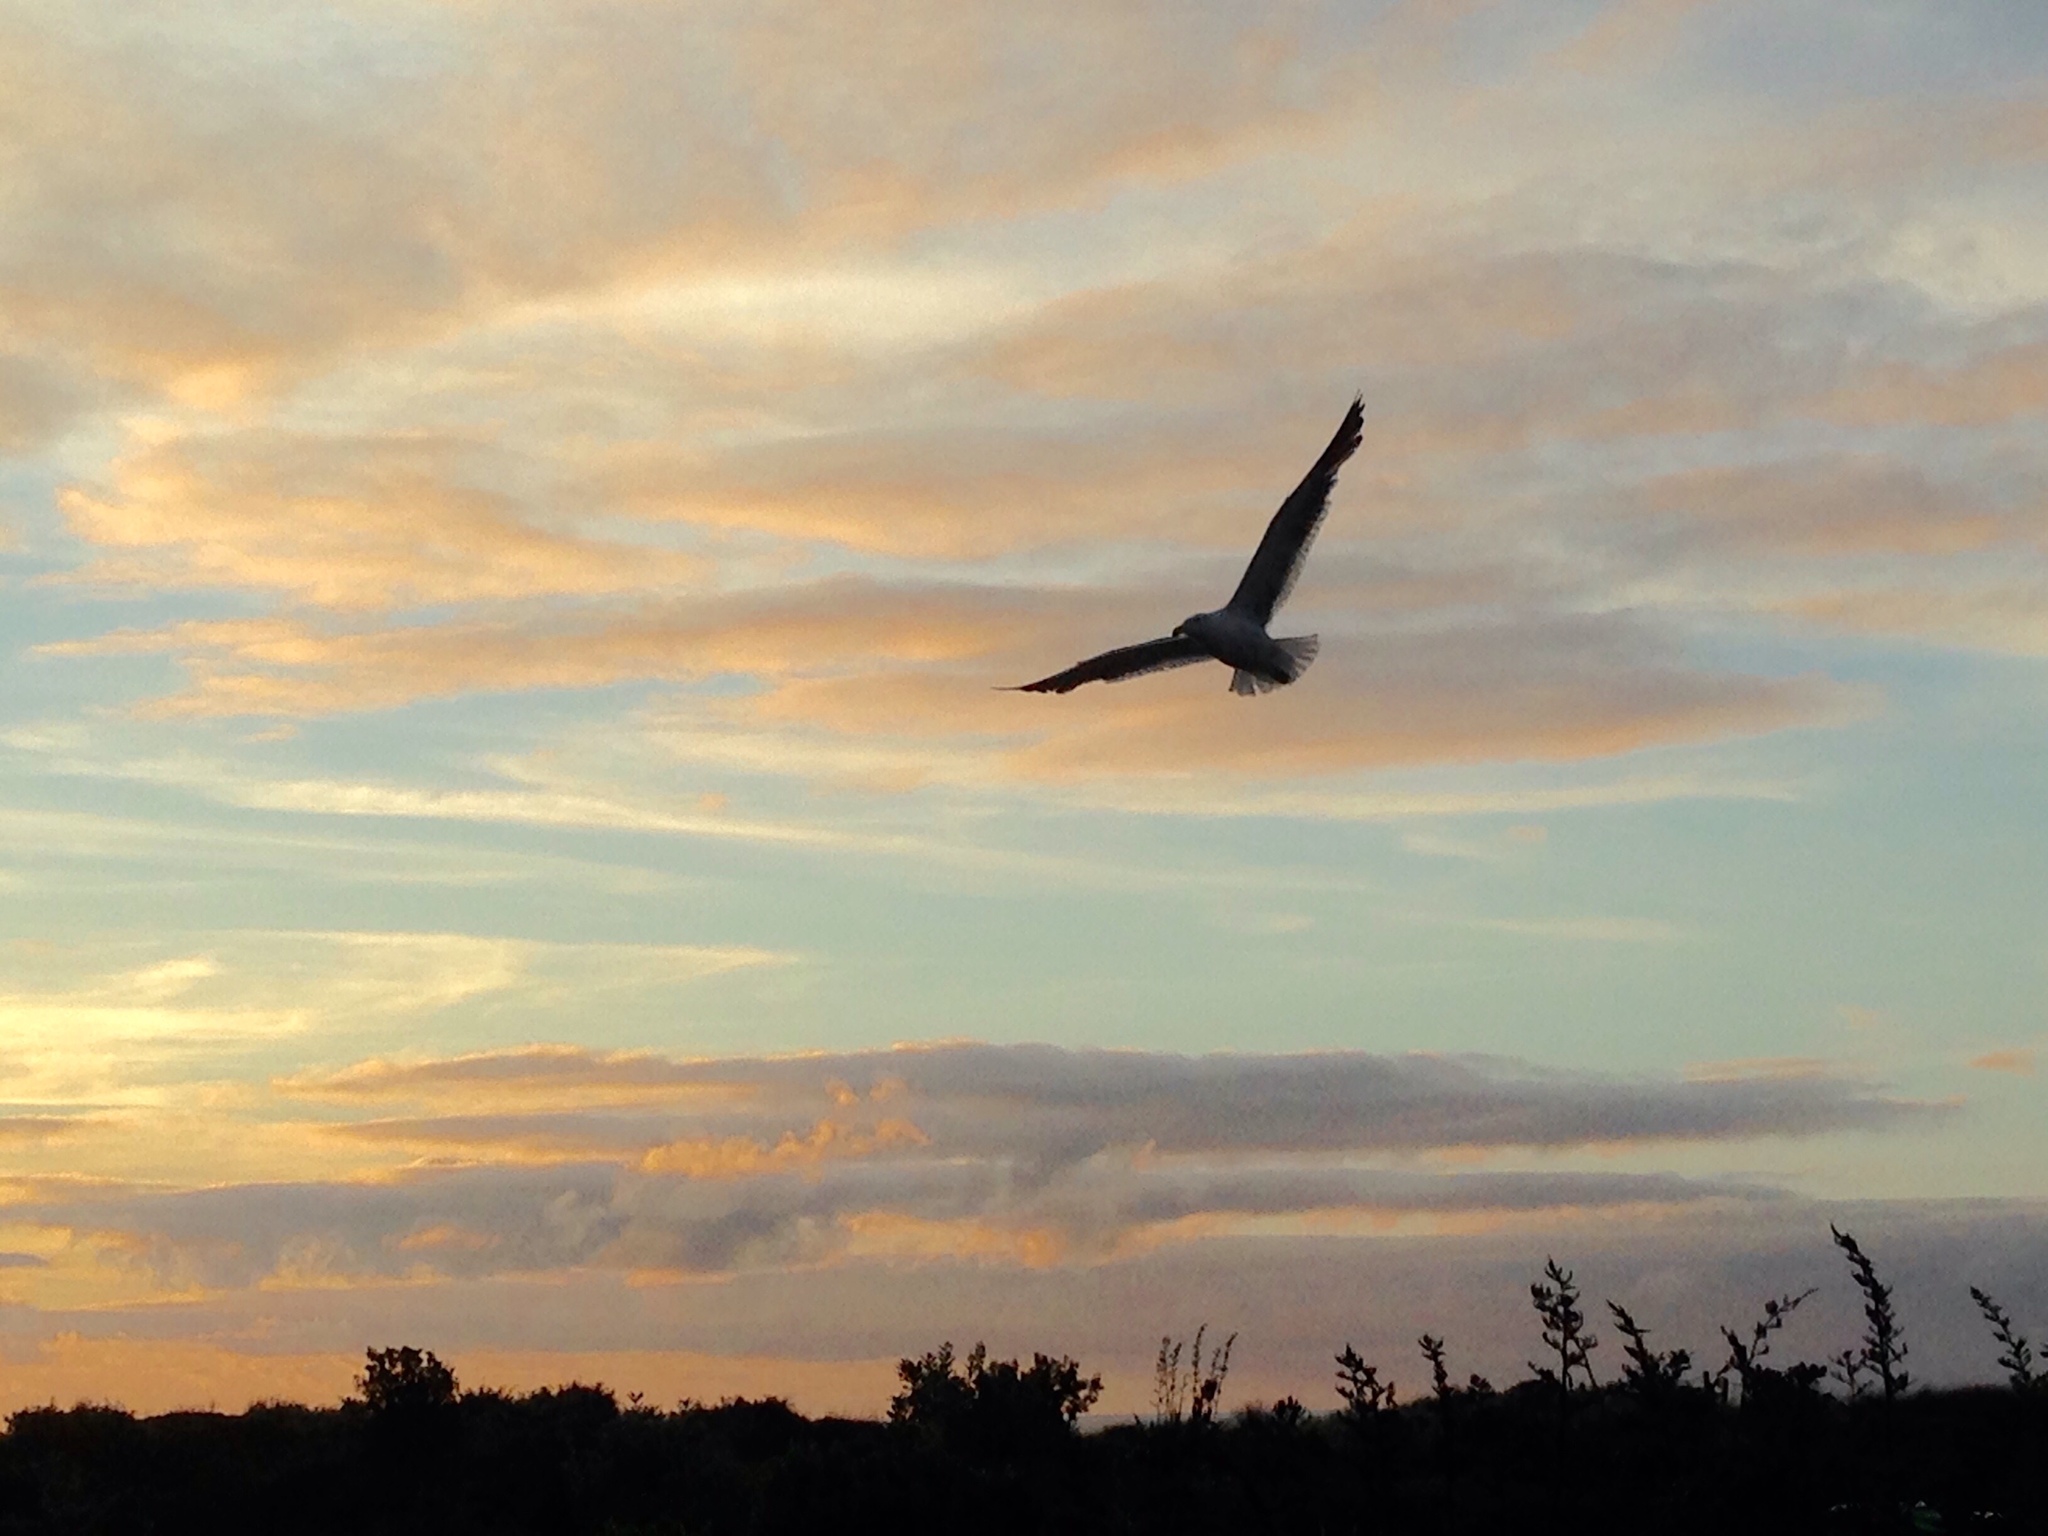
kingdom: Animalia
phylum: Chordata
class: Aves
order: Charadriiformes
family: Laridae
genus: Larus
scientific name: Larus dominicanus
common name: Kelp gull
